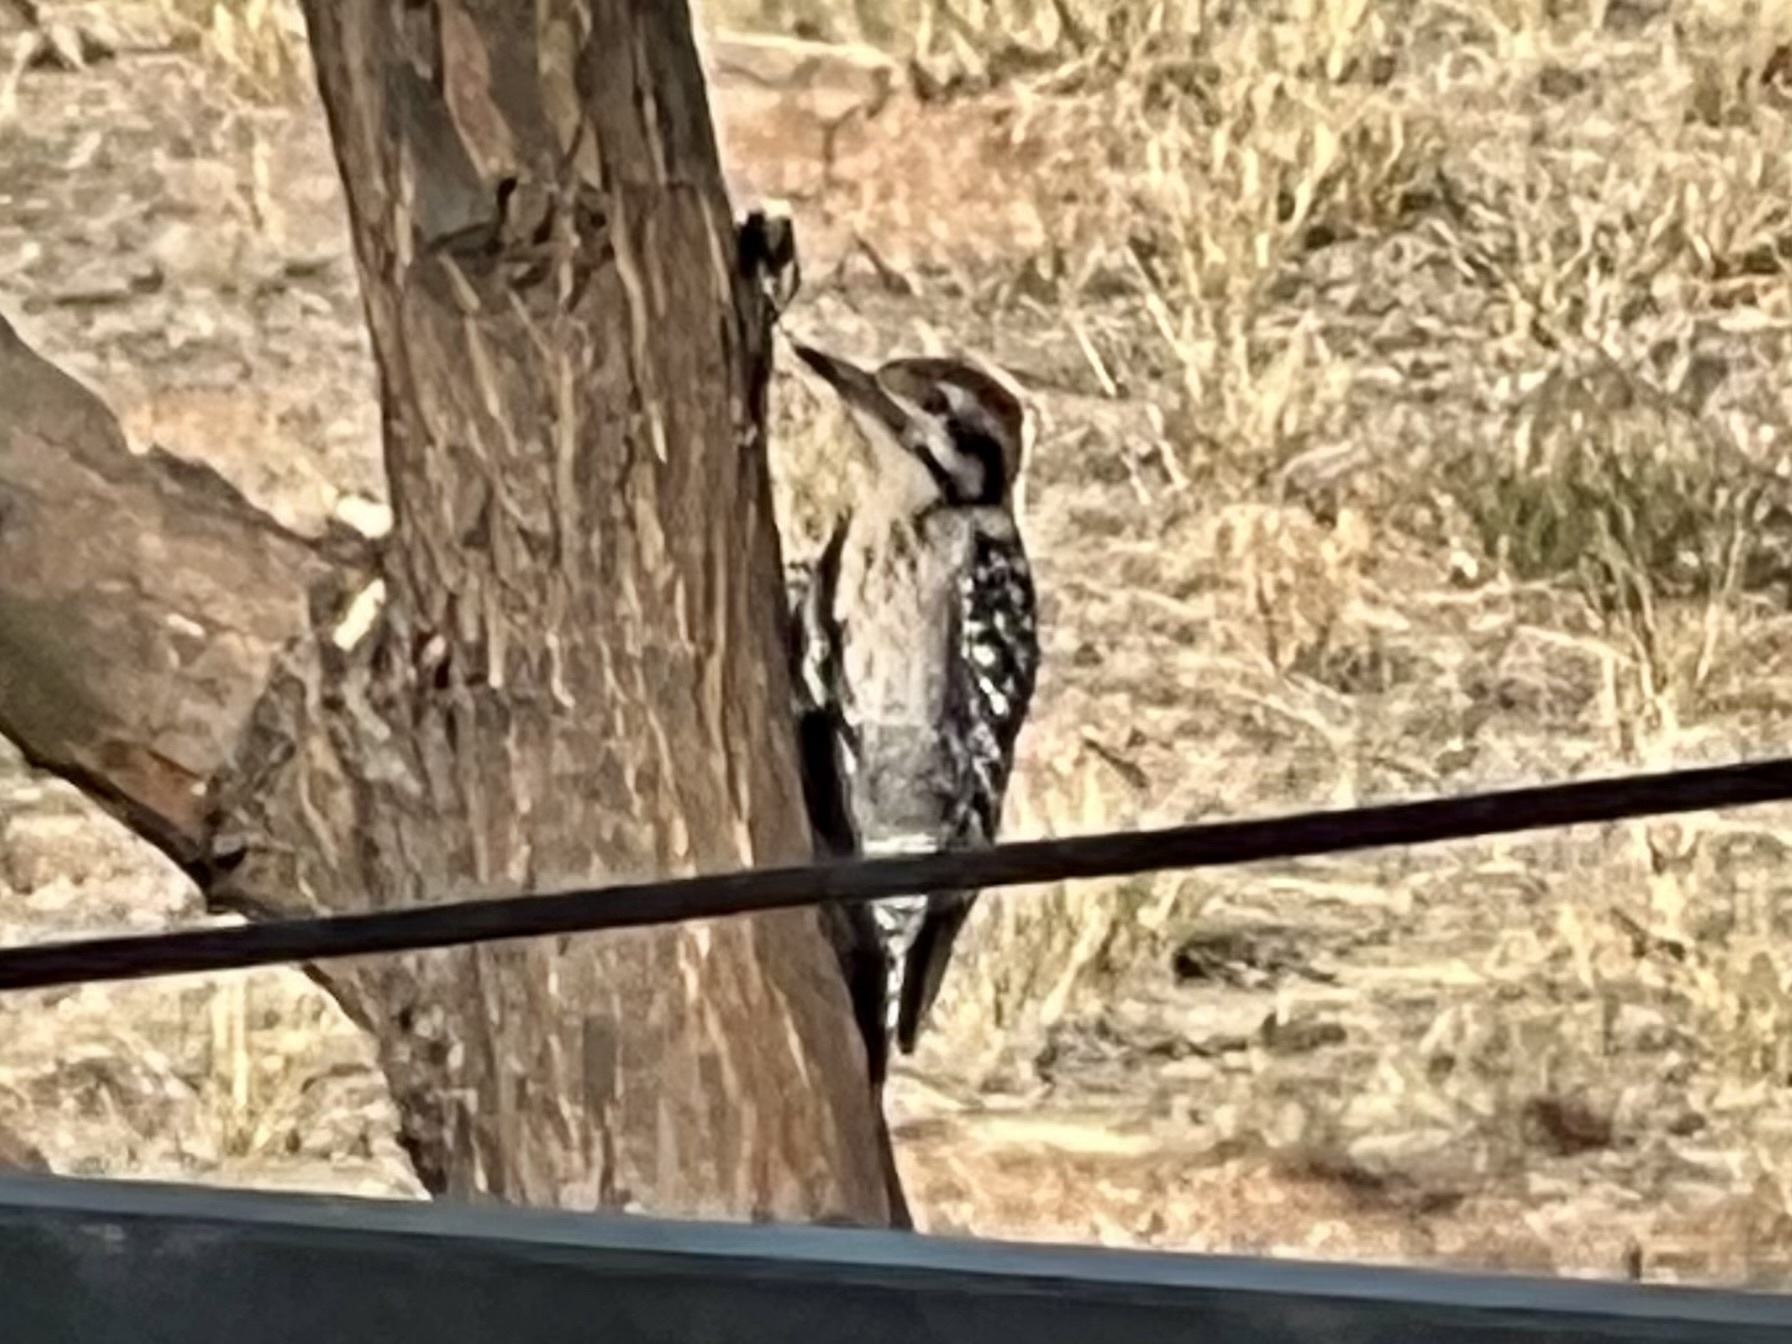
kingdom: Animalia
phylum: Chordata
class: Aves
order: Piciformes
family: Picidae
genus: Dryobates
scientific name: Dryobates scalaris
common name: Ladder-backed woodpecker
